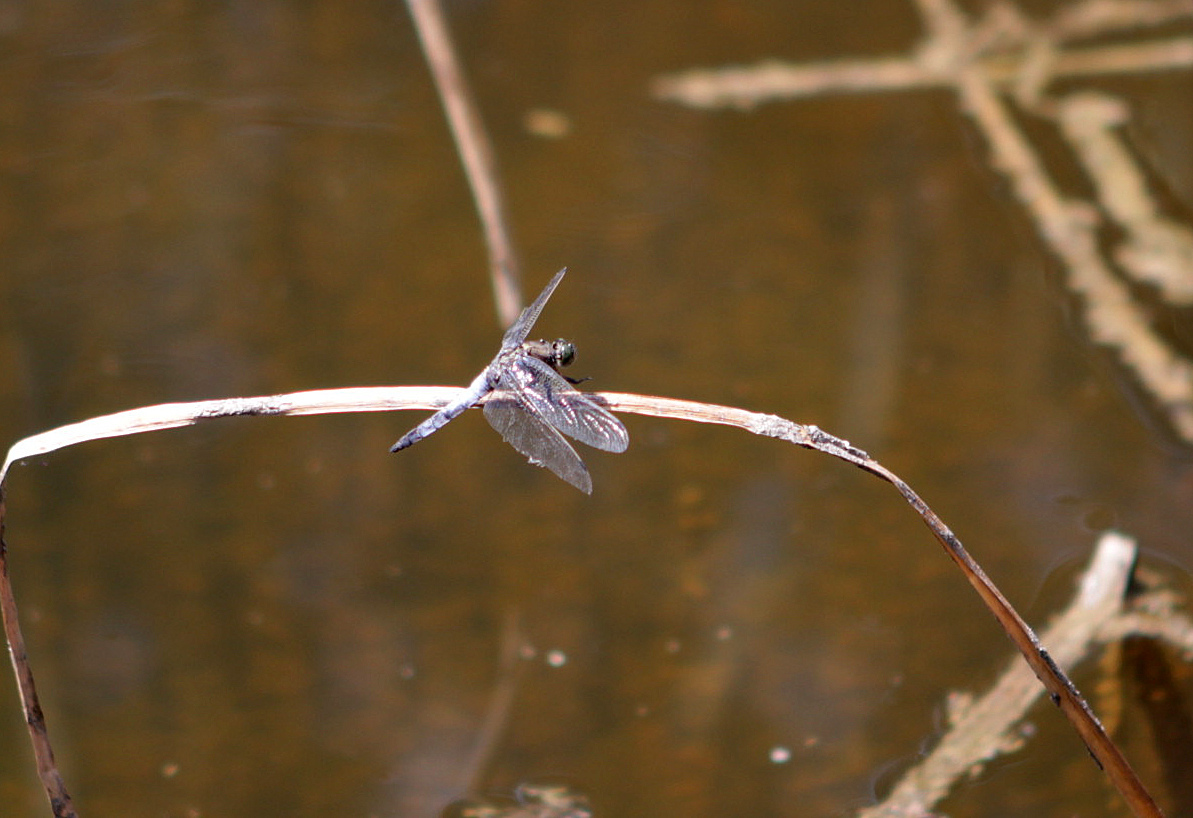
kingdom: Animalia
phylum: Arthropoda
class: Insecta
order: Odonata
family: Libellulidae
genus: Orthetrum
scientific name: Orthetrum cancellatum
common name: Black-tailed skimmer
